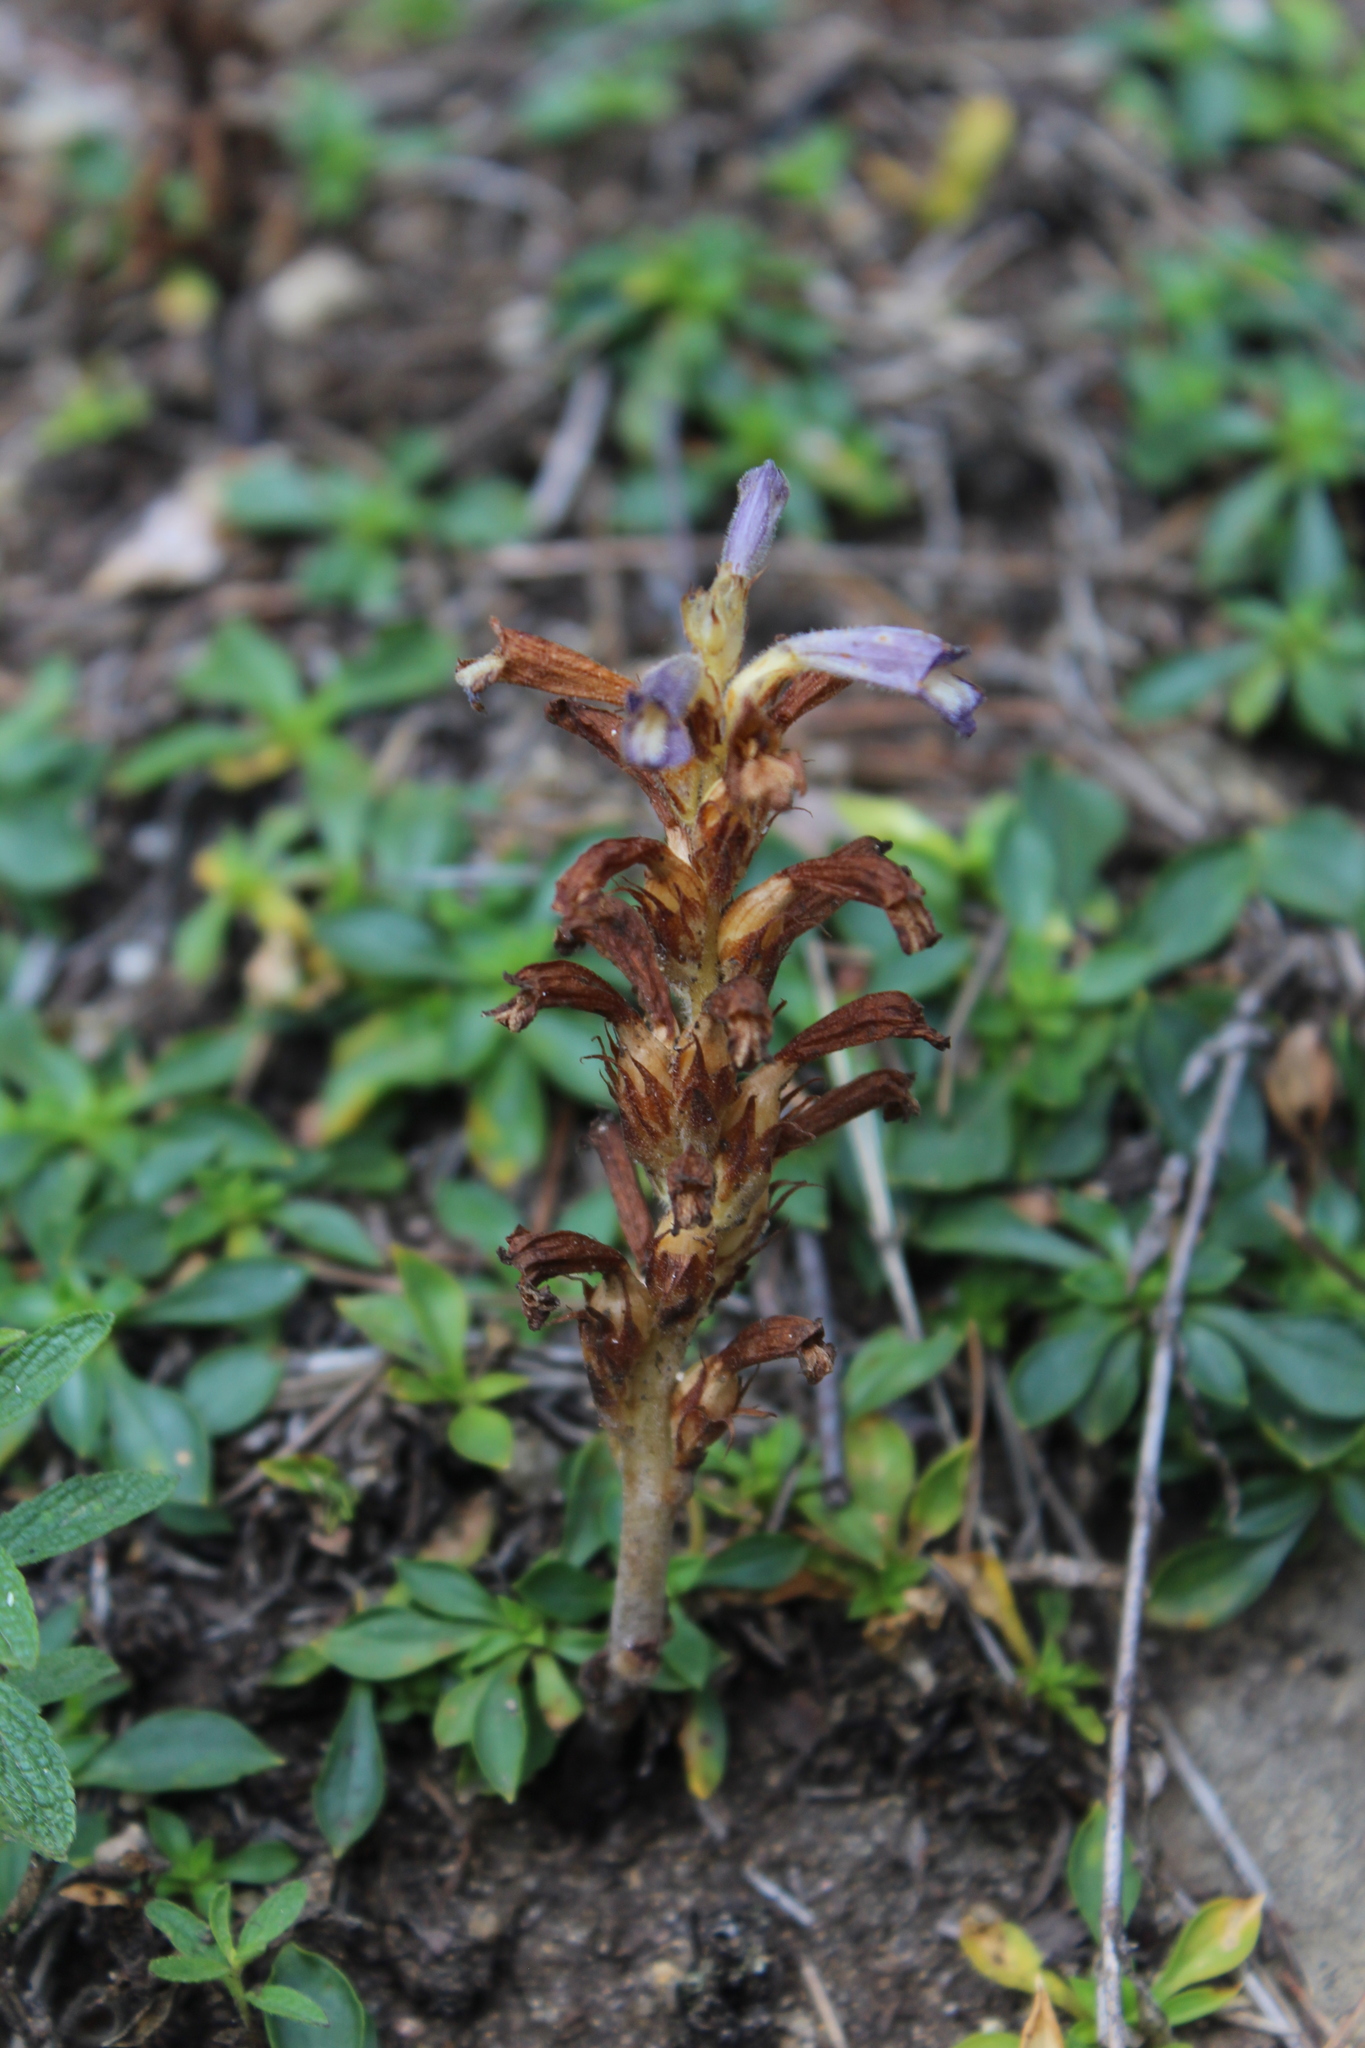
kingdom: Plantae
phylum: Tracheophyta
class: Magnoliopsida
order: Lamiales
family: Orobanchaceae
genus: Phelipanche
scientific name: Phelipanche purpurea
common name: Purple broomrape
